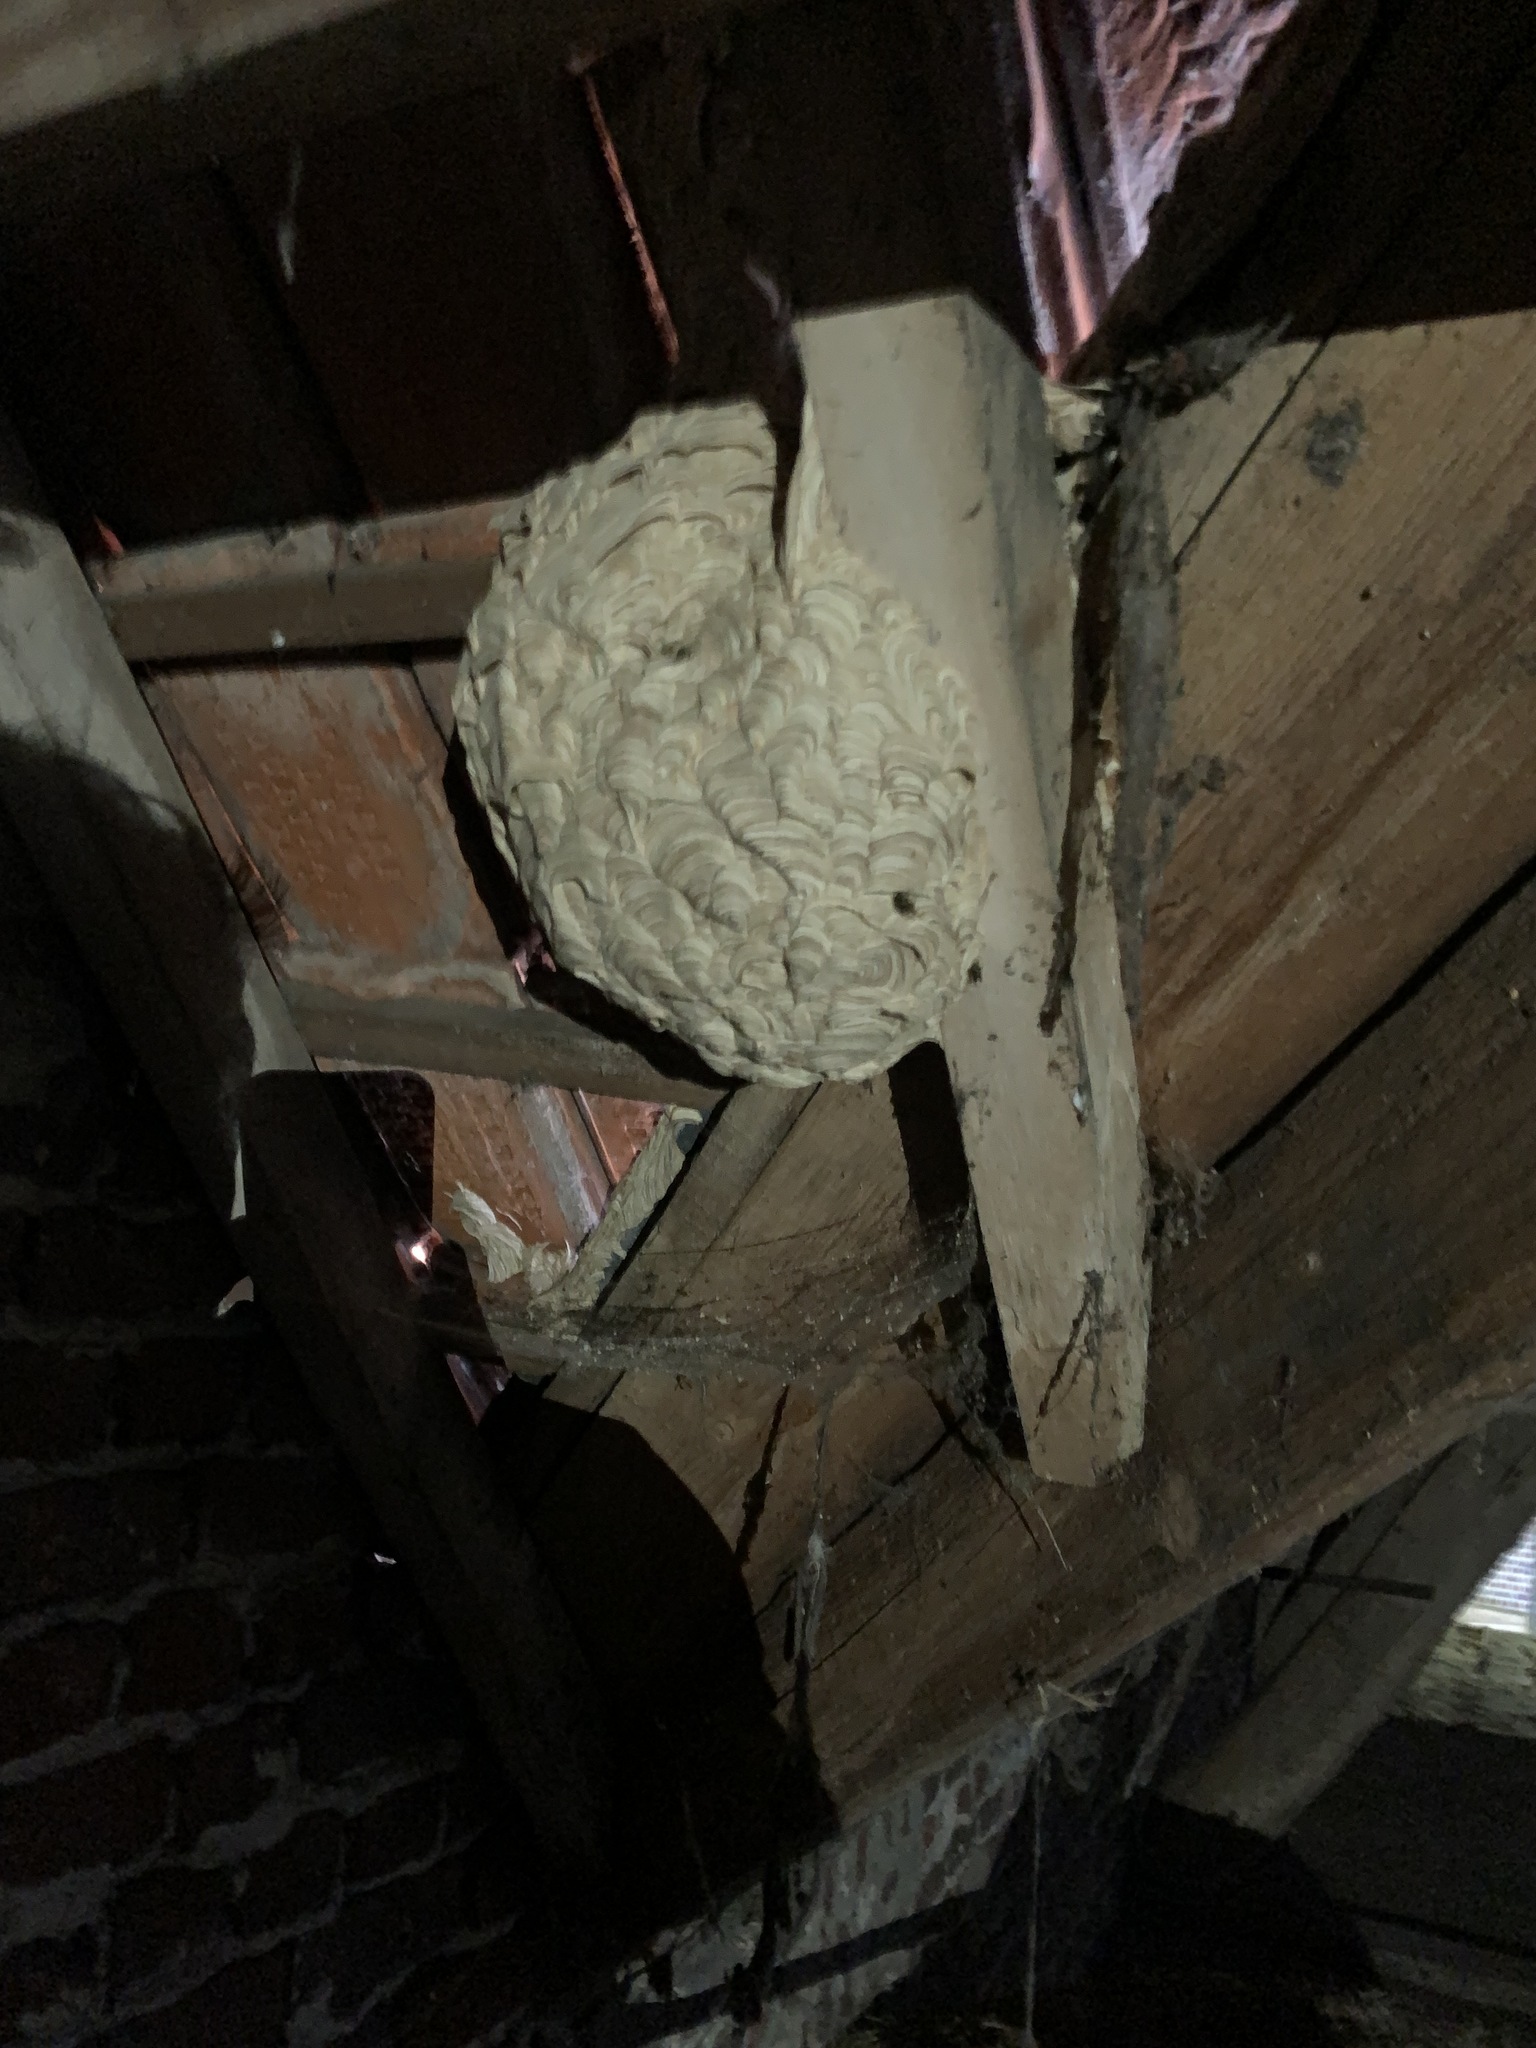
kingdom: Animalia
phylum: Arthropoda
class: Insecta
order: Hymenoptera
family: Vespidae
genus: Vespa
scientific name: Vespa velutina
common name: Asian hornet
